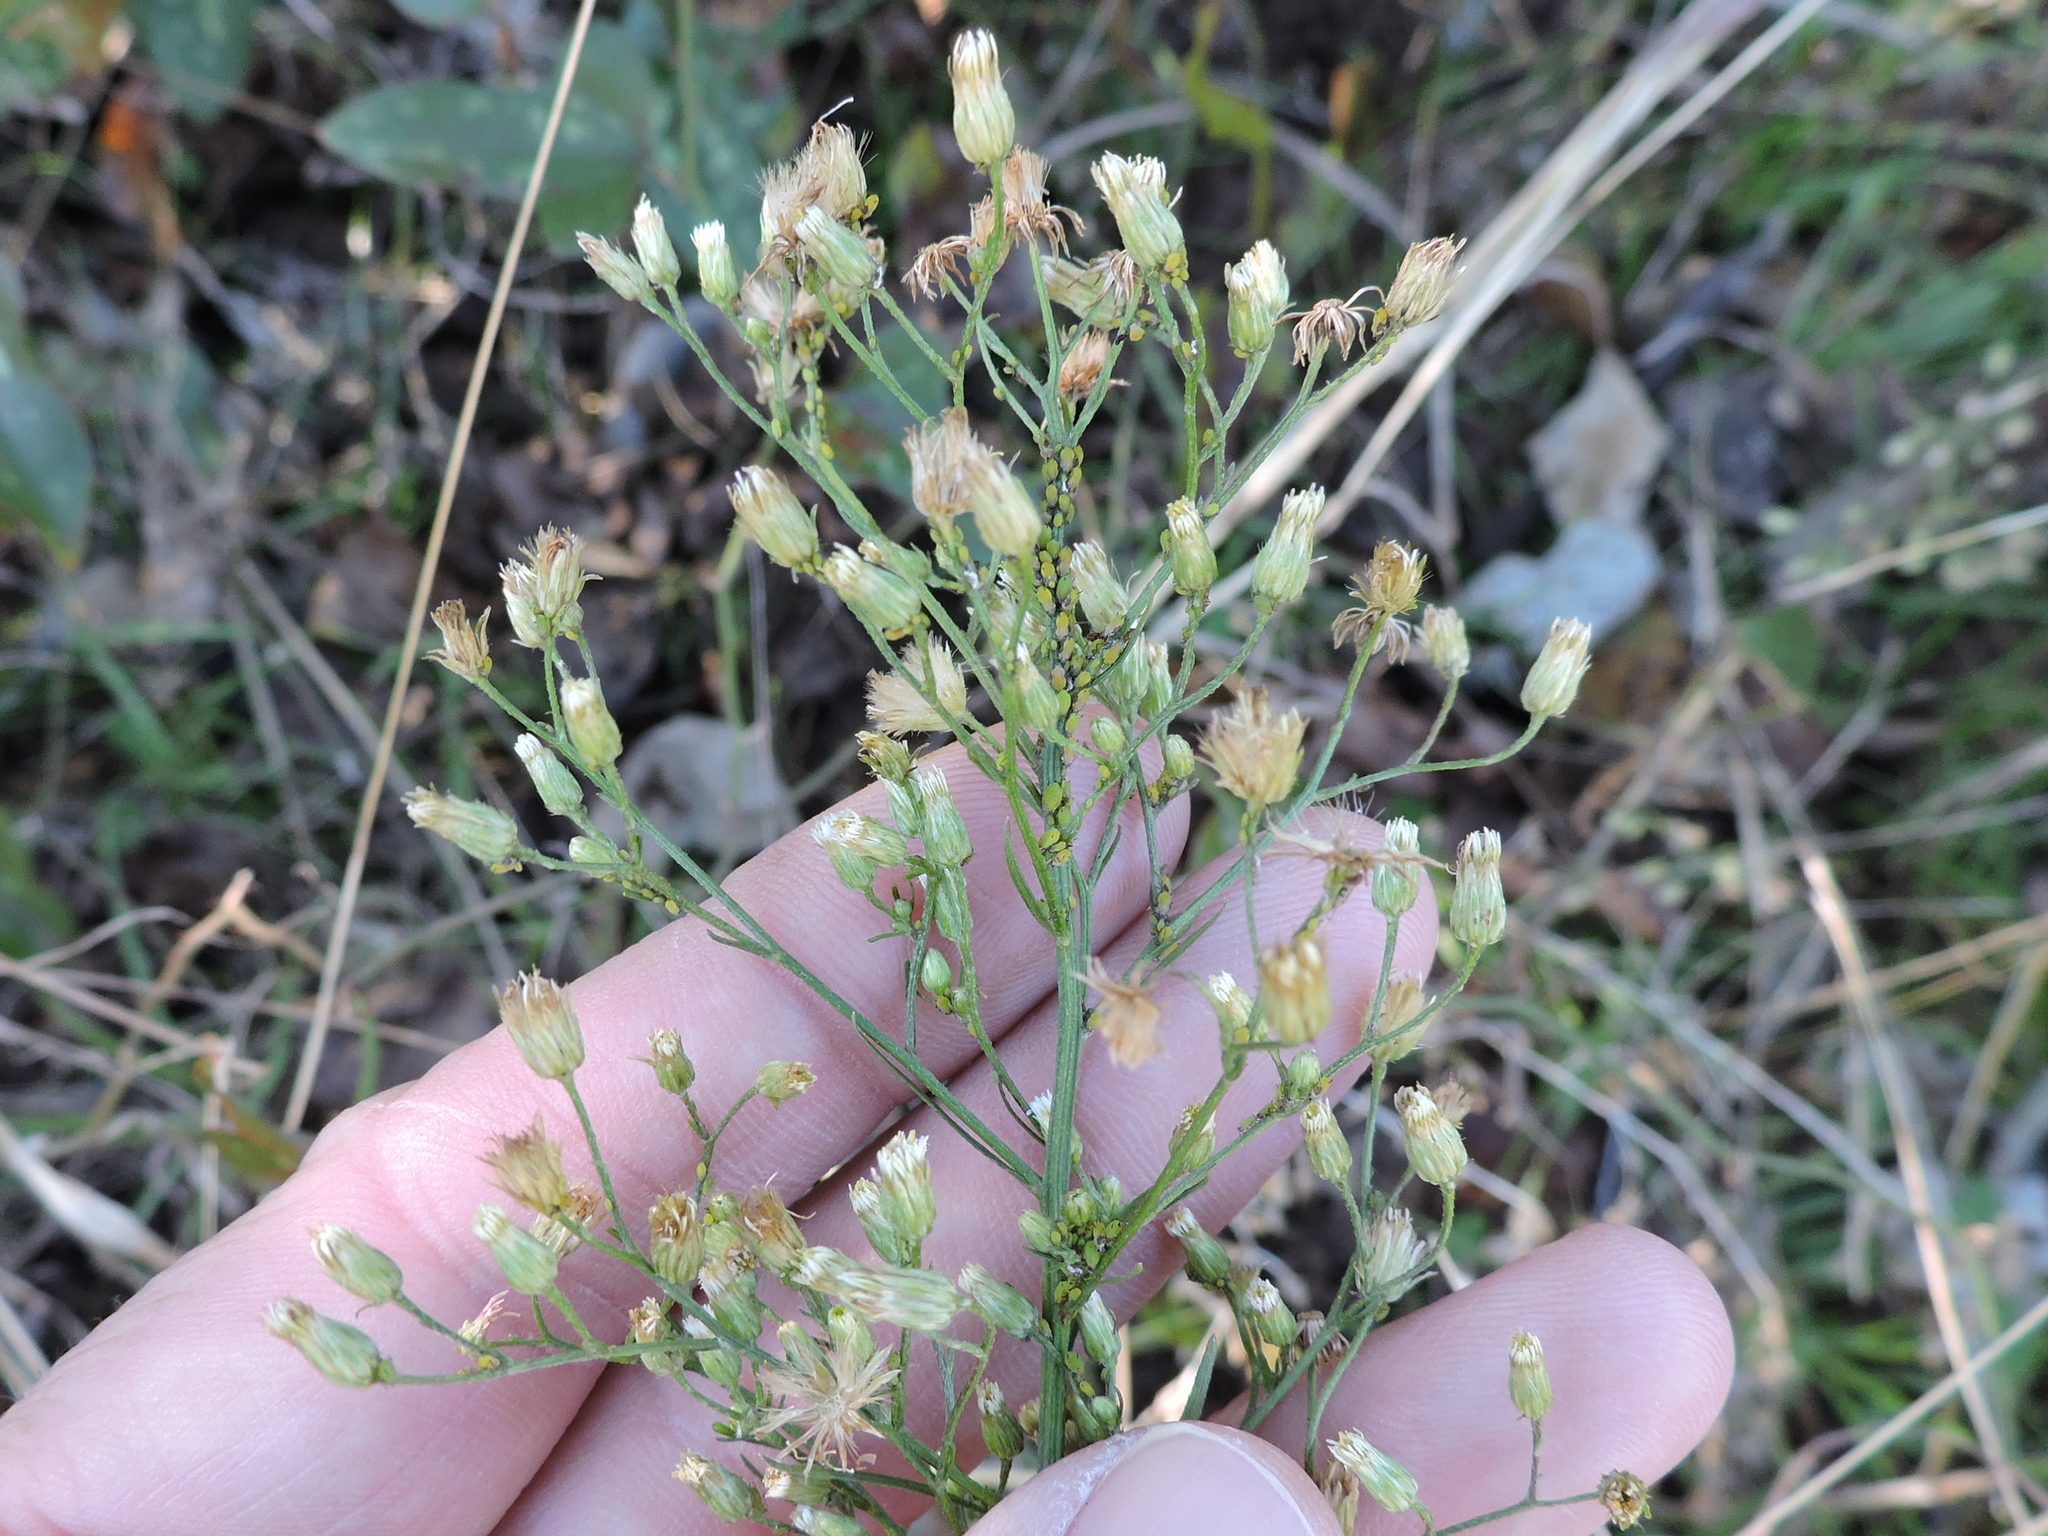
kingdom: Plantae
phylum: Tracheophyta
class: Magnoliopsida
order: Asterales
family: Asteraceae
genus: Erigeron
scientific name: Erigeron canadensis
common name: Canadian fleabane
